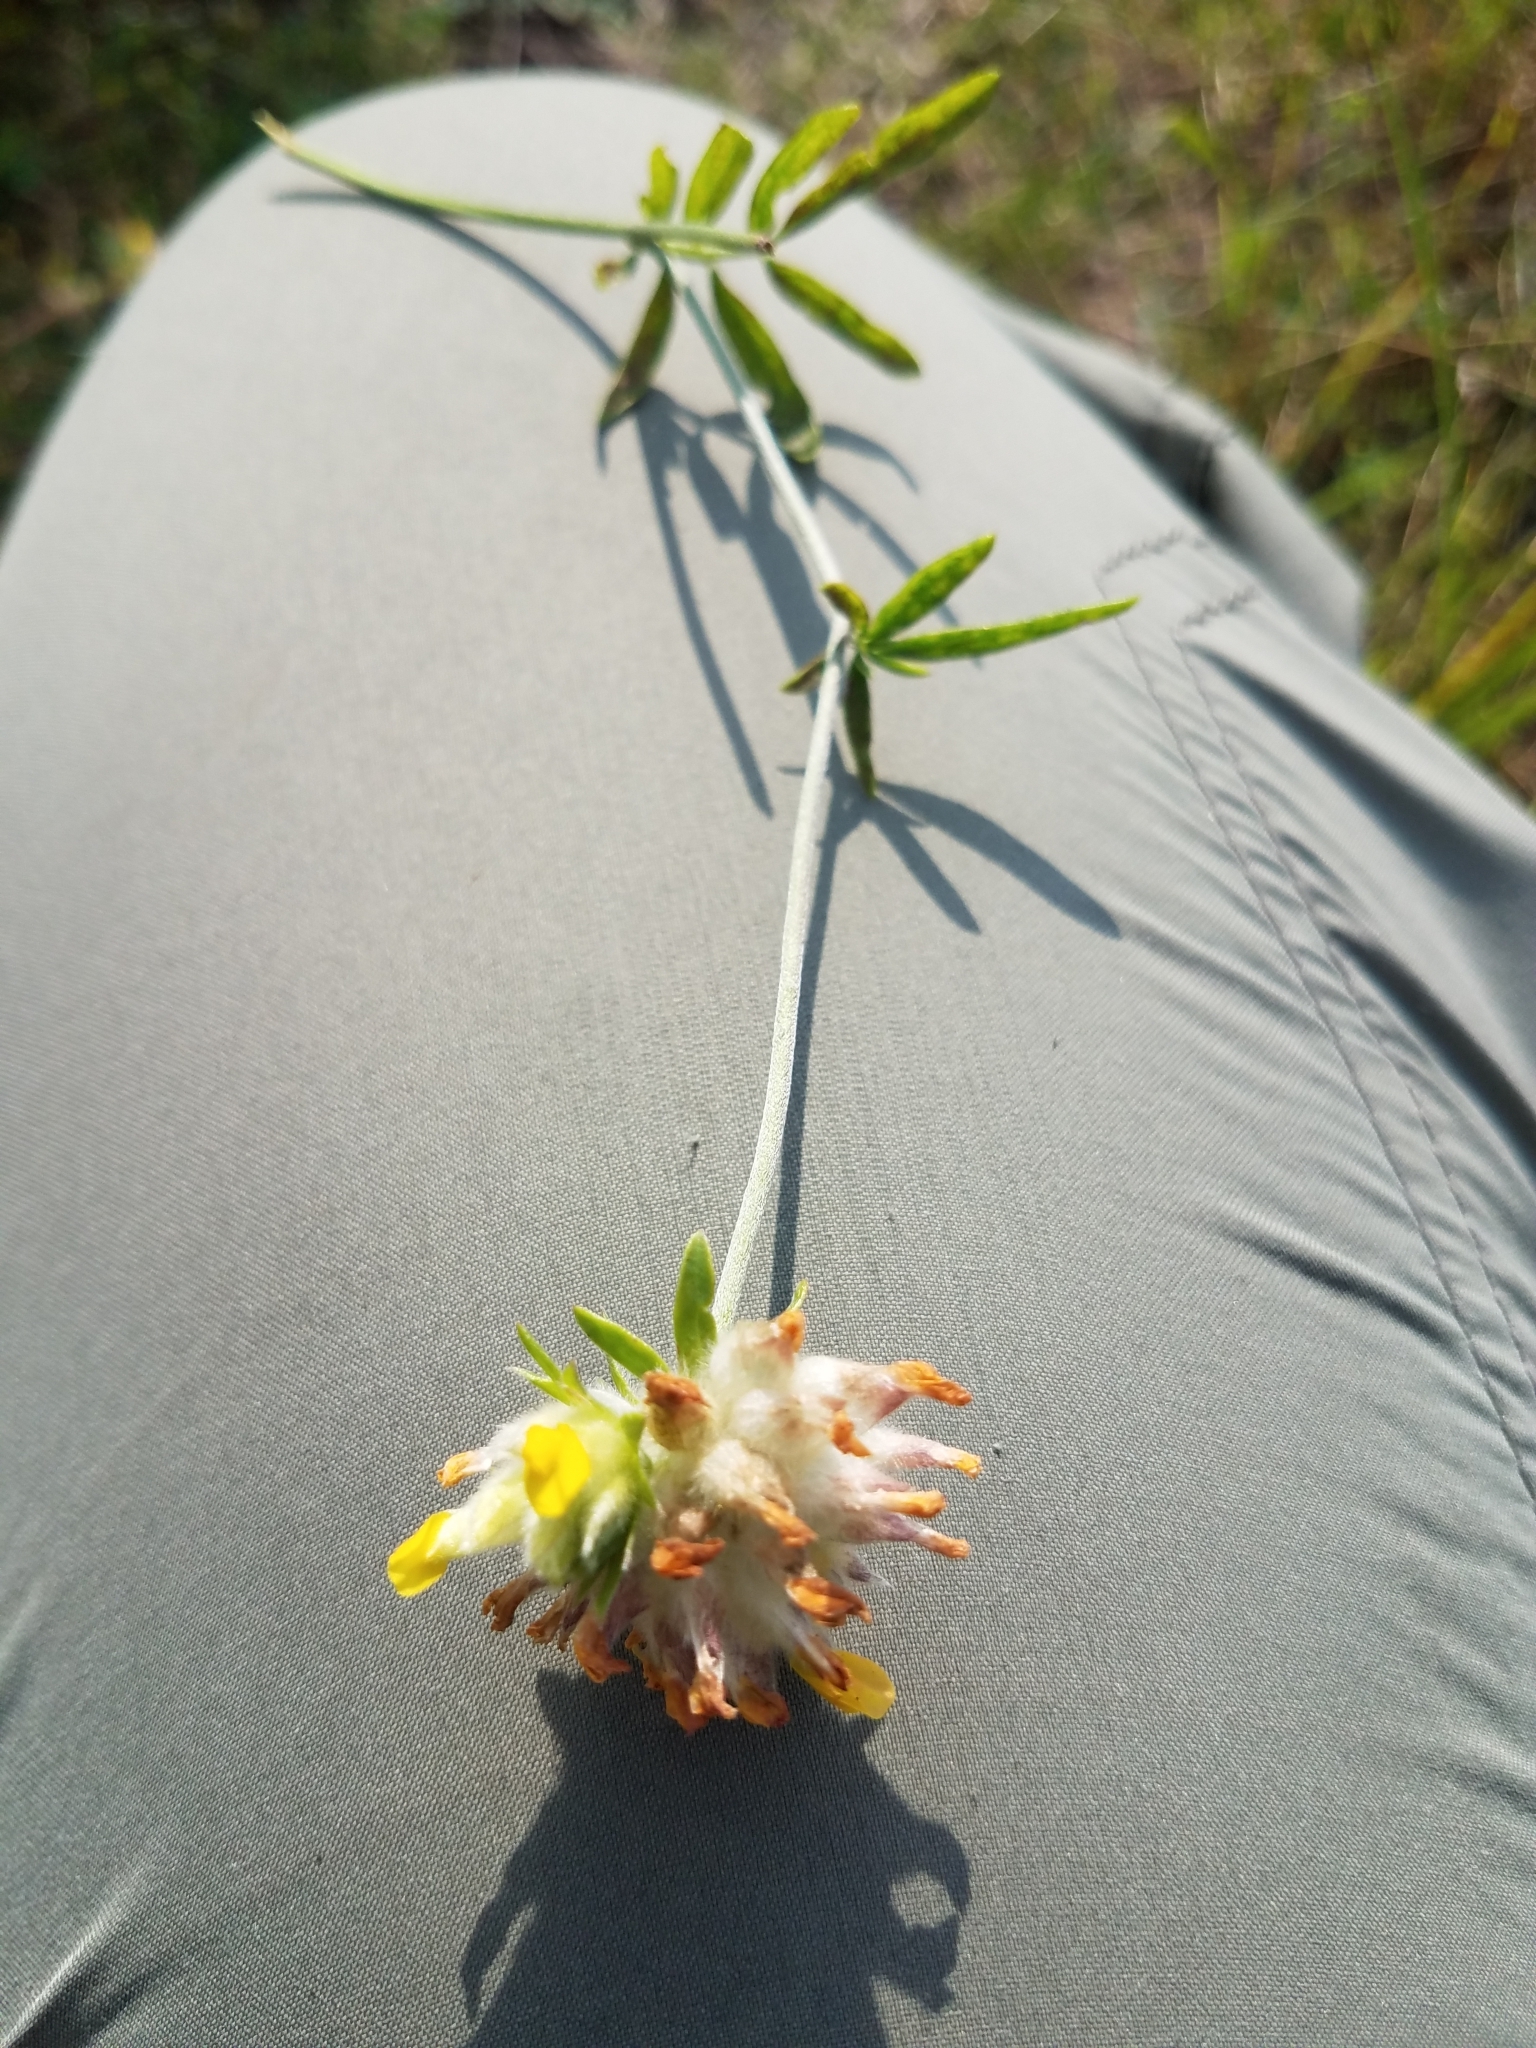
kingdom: Plantae
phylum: Tracheophyta
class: Magnoliopsida
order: Fabales
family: Fabaceae
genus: Anthyllis
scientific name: Anthyllis vulneraria
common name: Kidney vetch
